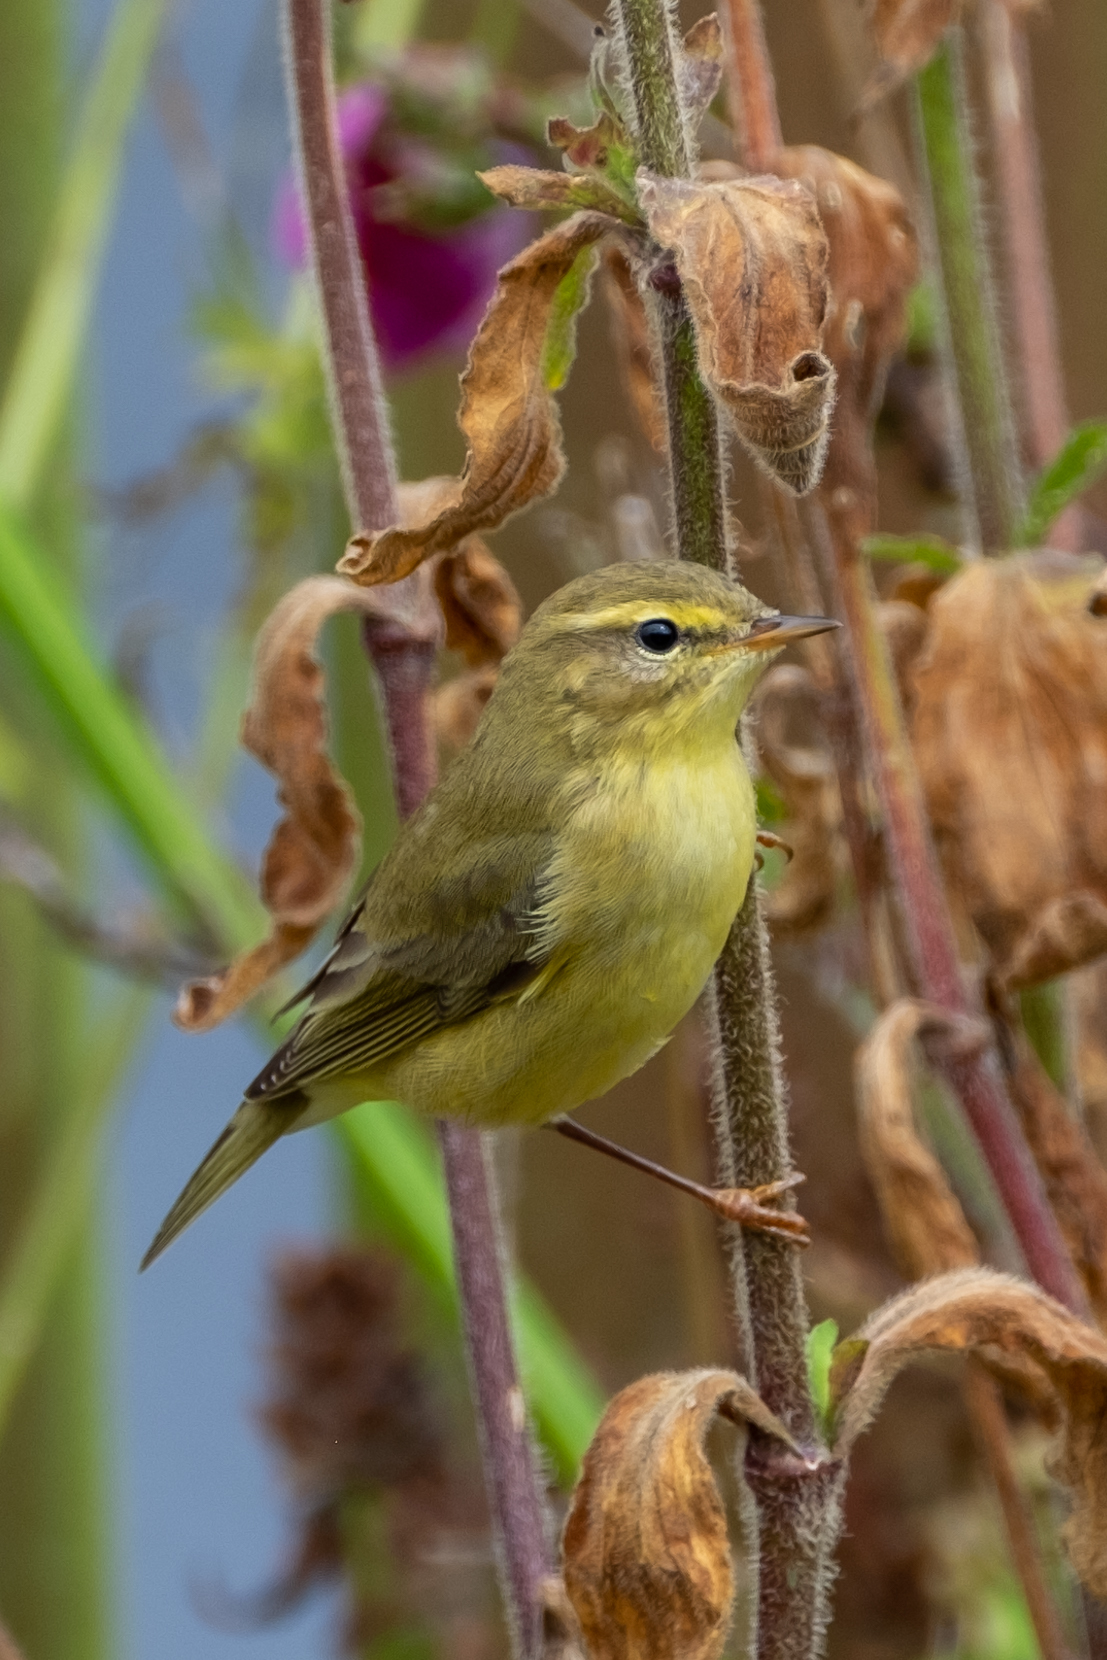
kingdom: Animalia
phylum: Chordata
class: Aves
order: Passeriformes
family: Phylloscopidae
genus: Phylloscopus
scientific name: Phylloscopus trochilus
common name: Willow warbler
